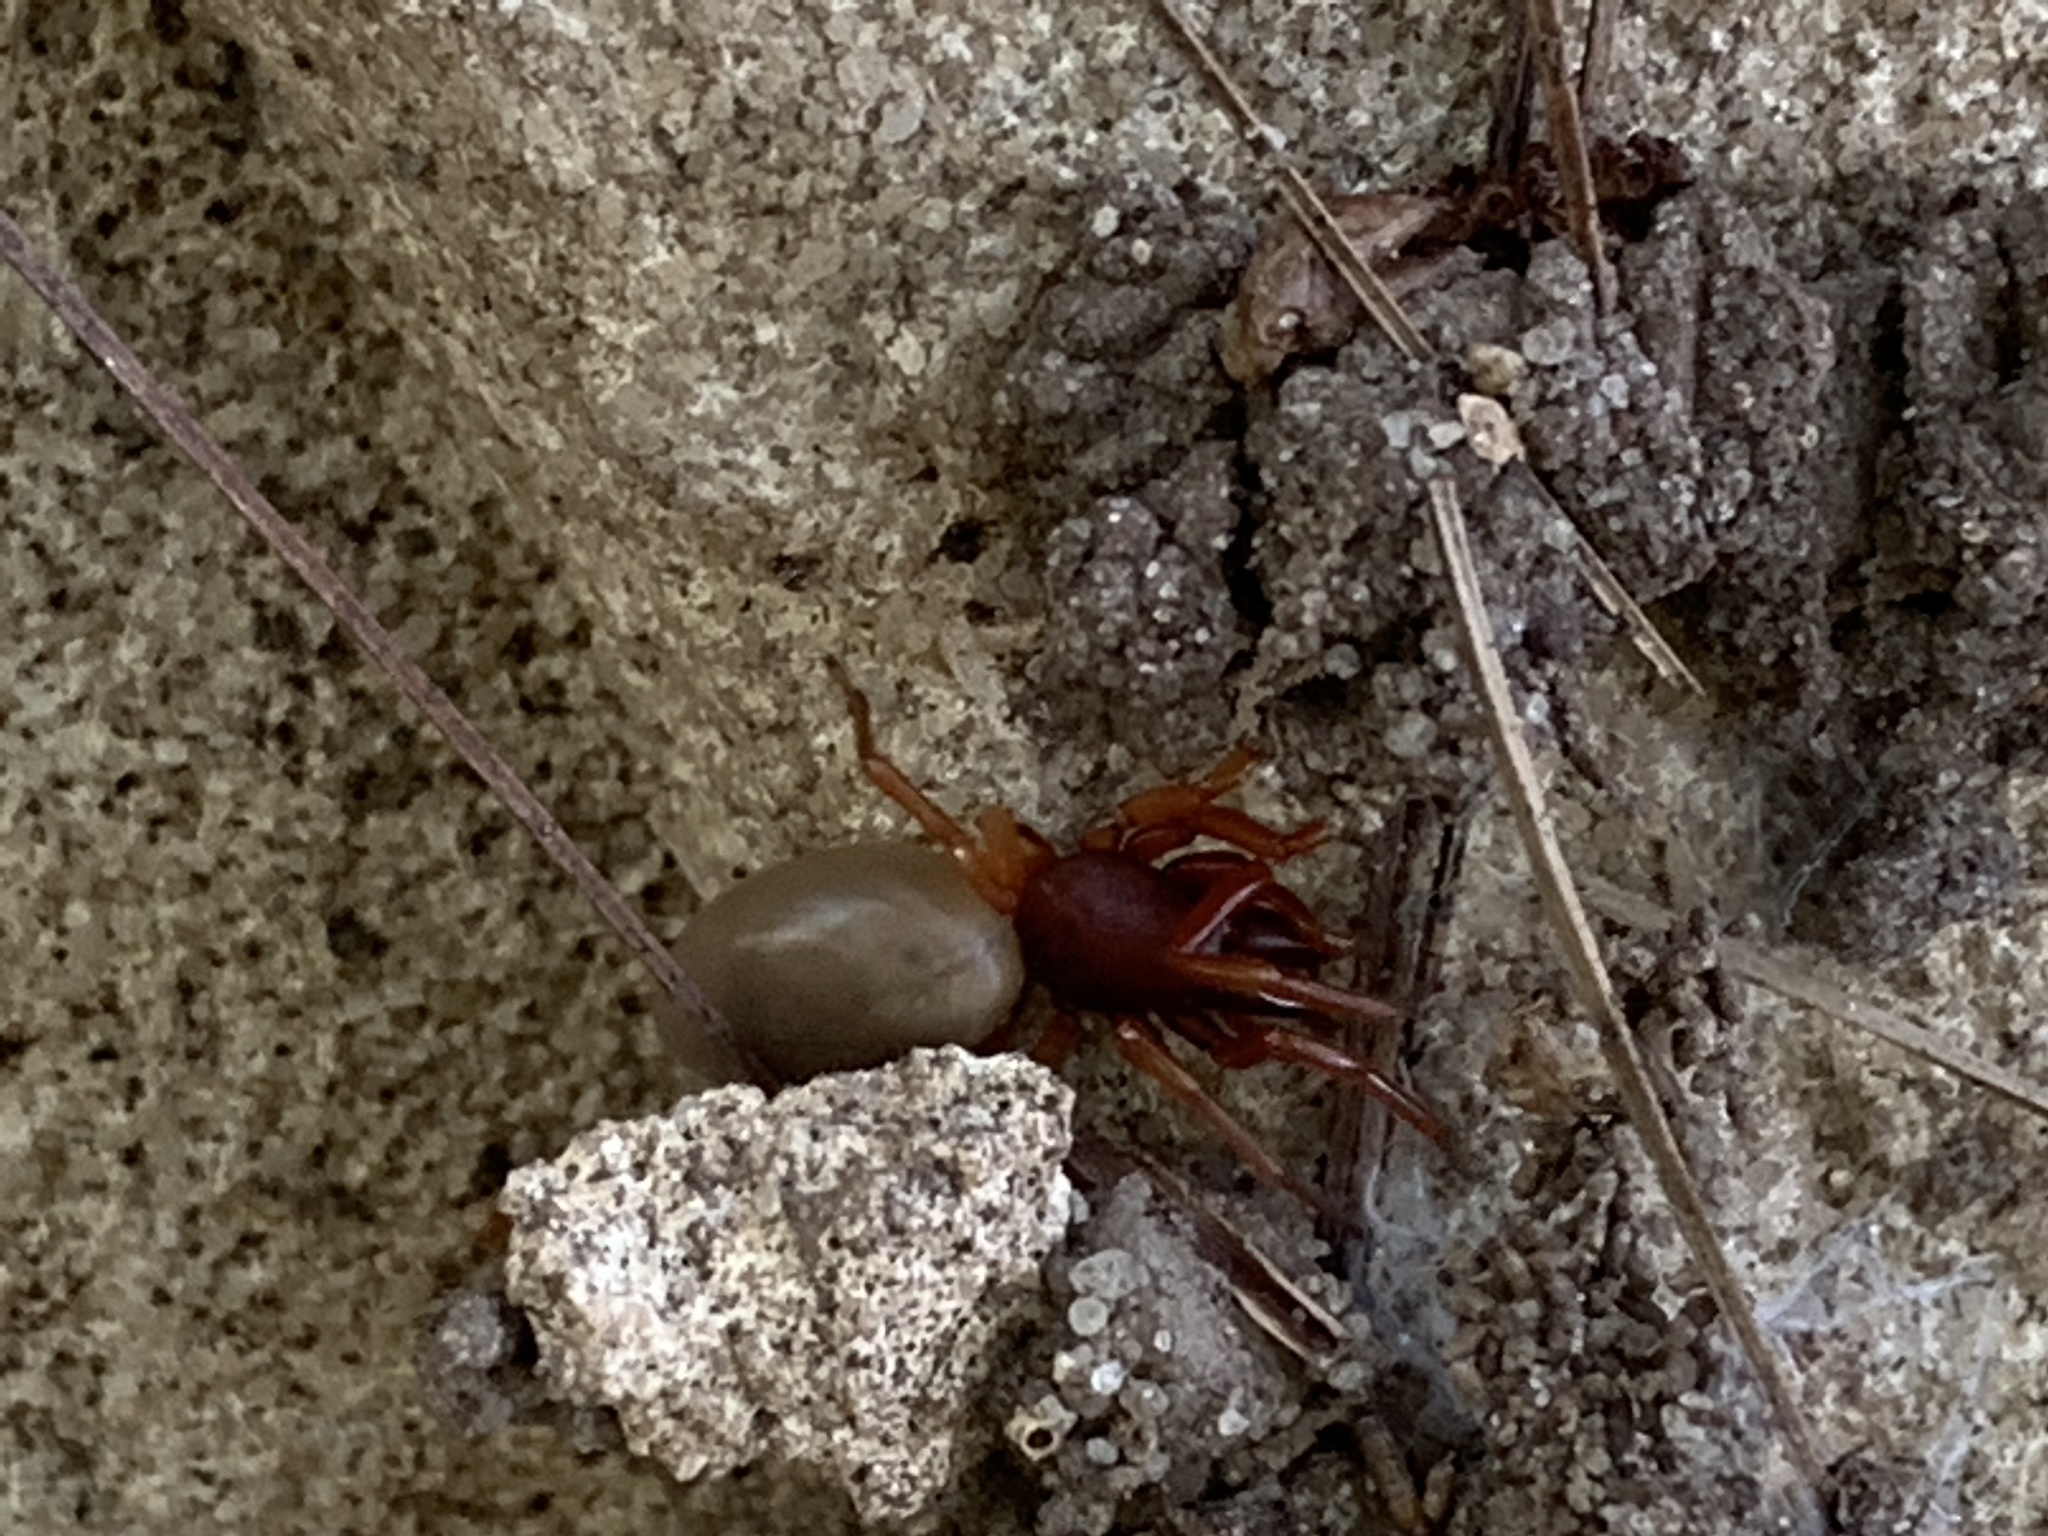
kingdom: Animalia
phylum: Arthropoda
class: Arachnida
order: Araneae
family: Dysderidae
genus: Dysdera
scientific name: Dysdera crocata
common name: Woodlouse spider
